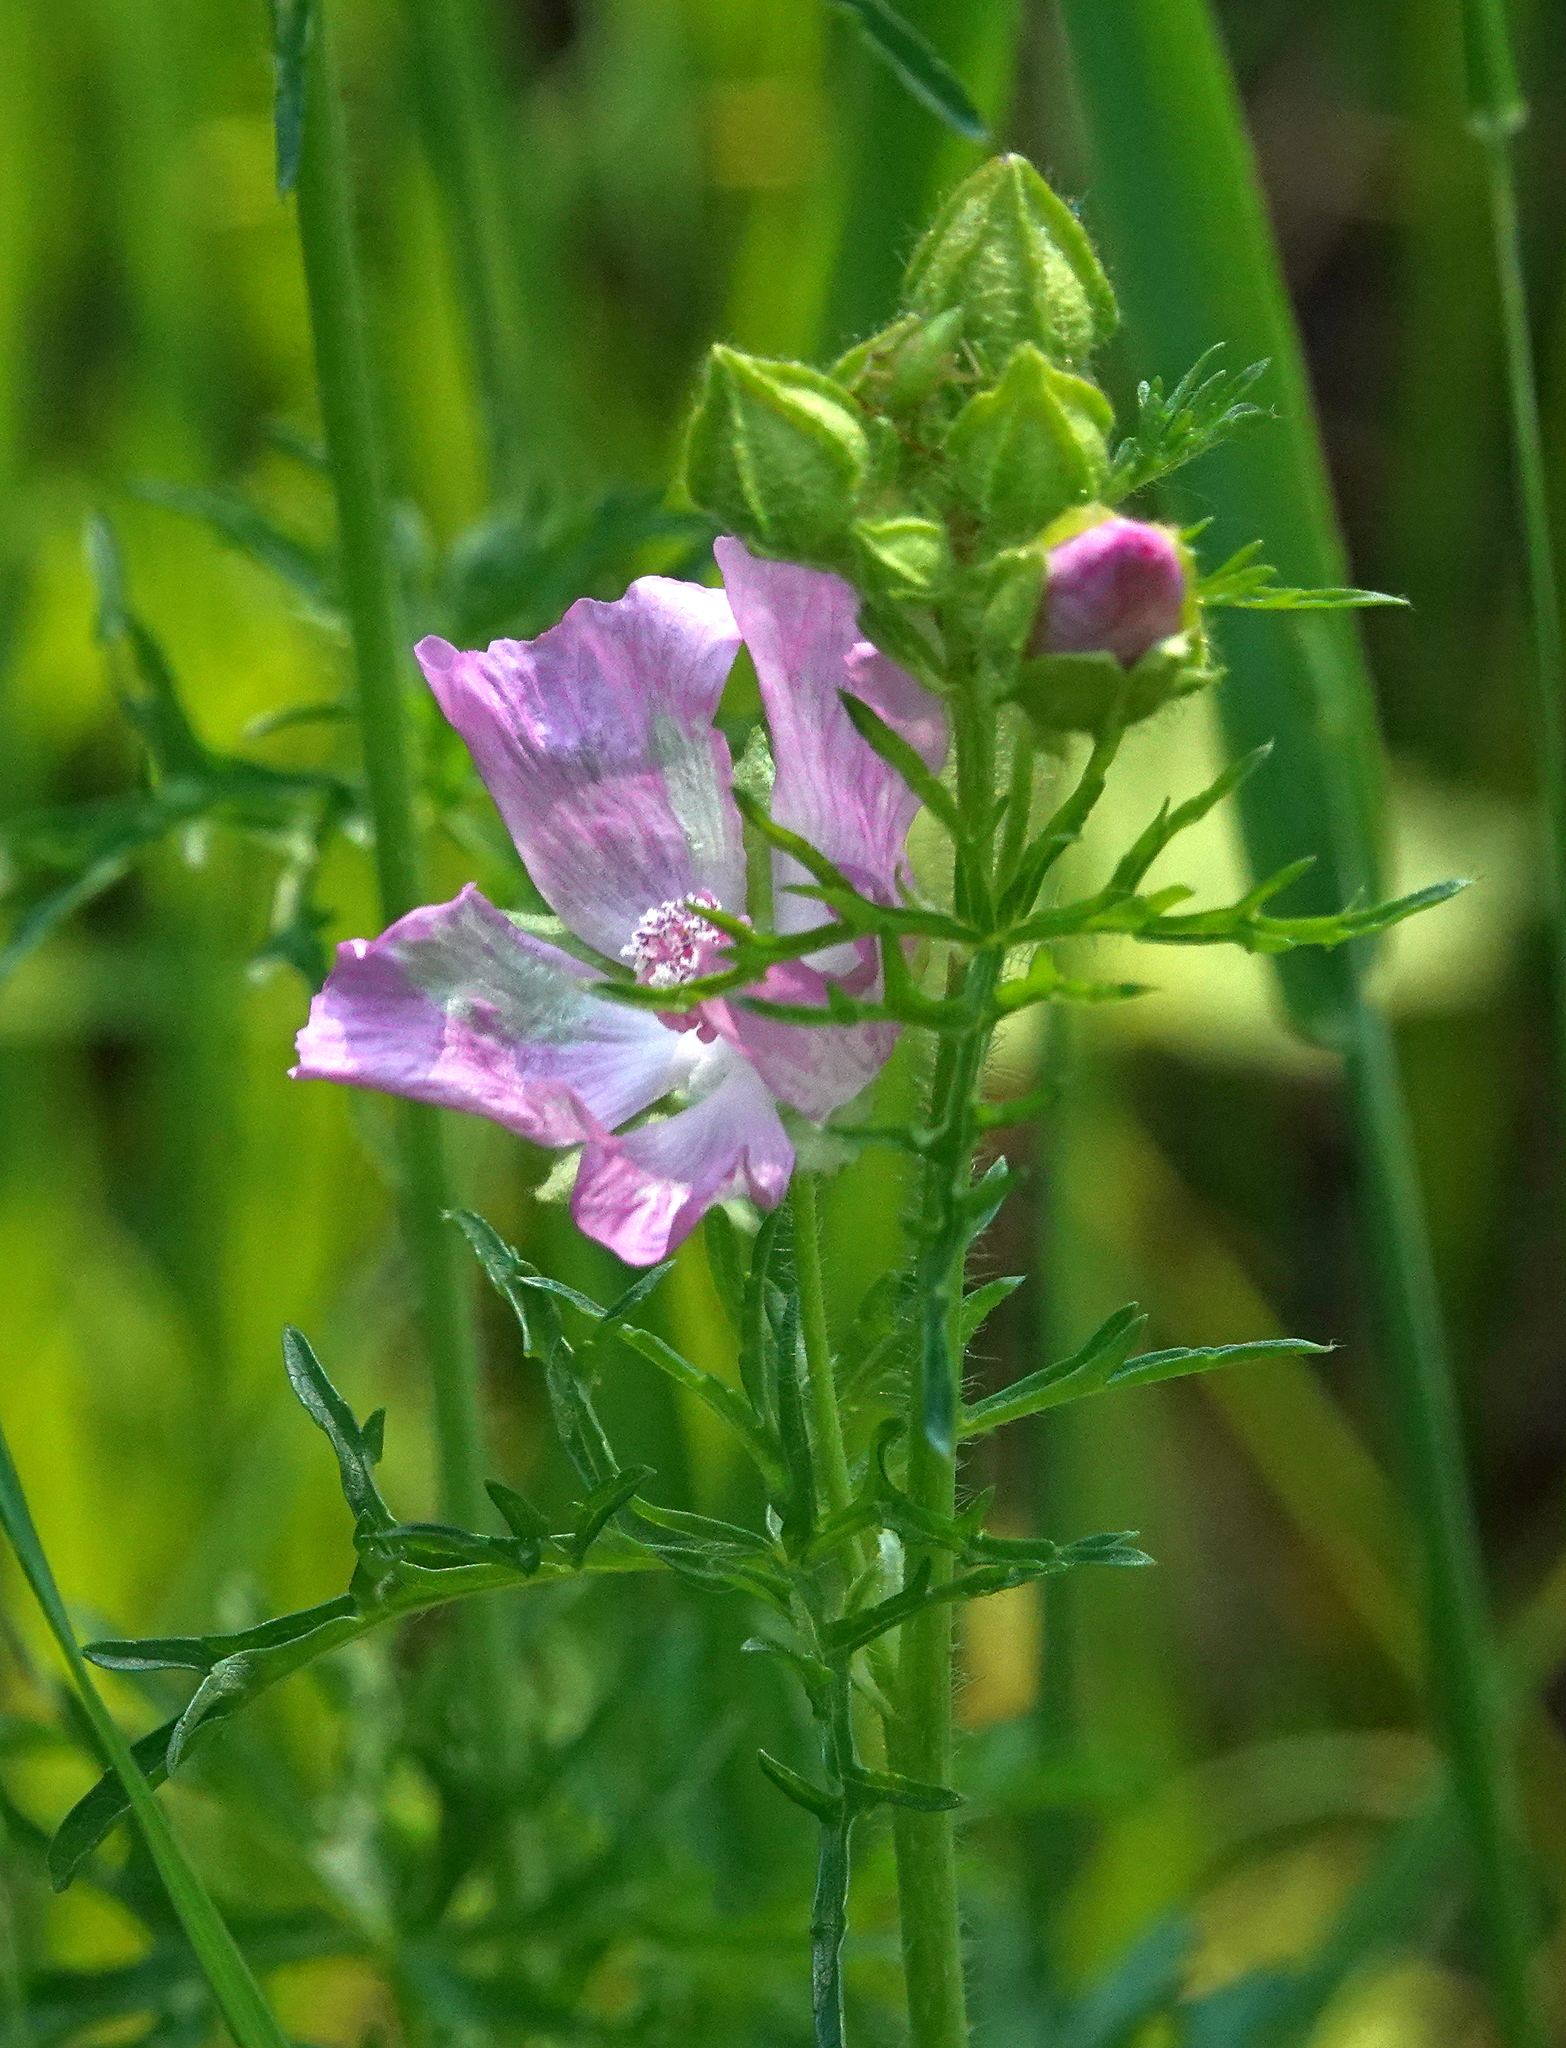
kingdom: Plantae
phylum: Tracheophyta
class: Magnoliopsida
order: Malvales
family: Malvaceae
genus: Malva
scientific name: Malva moschata
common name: Musk mallow
